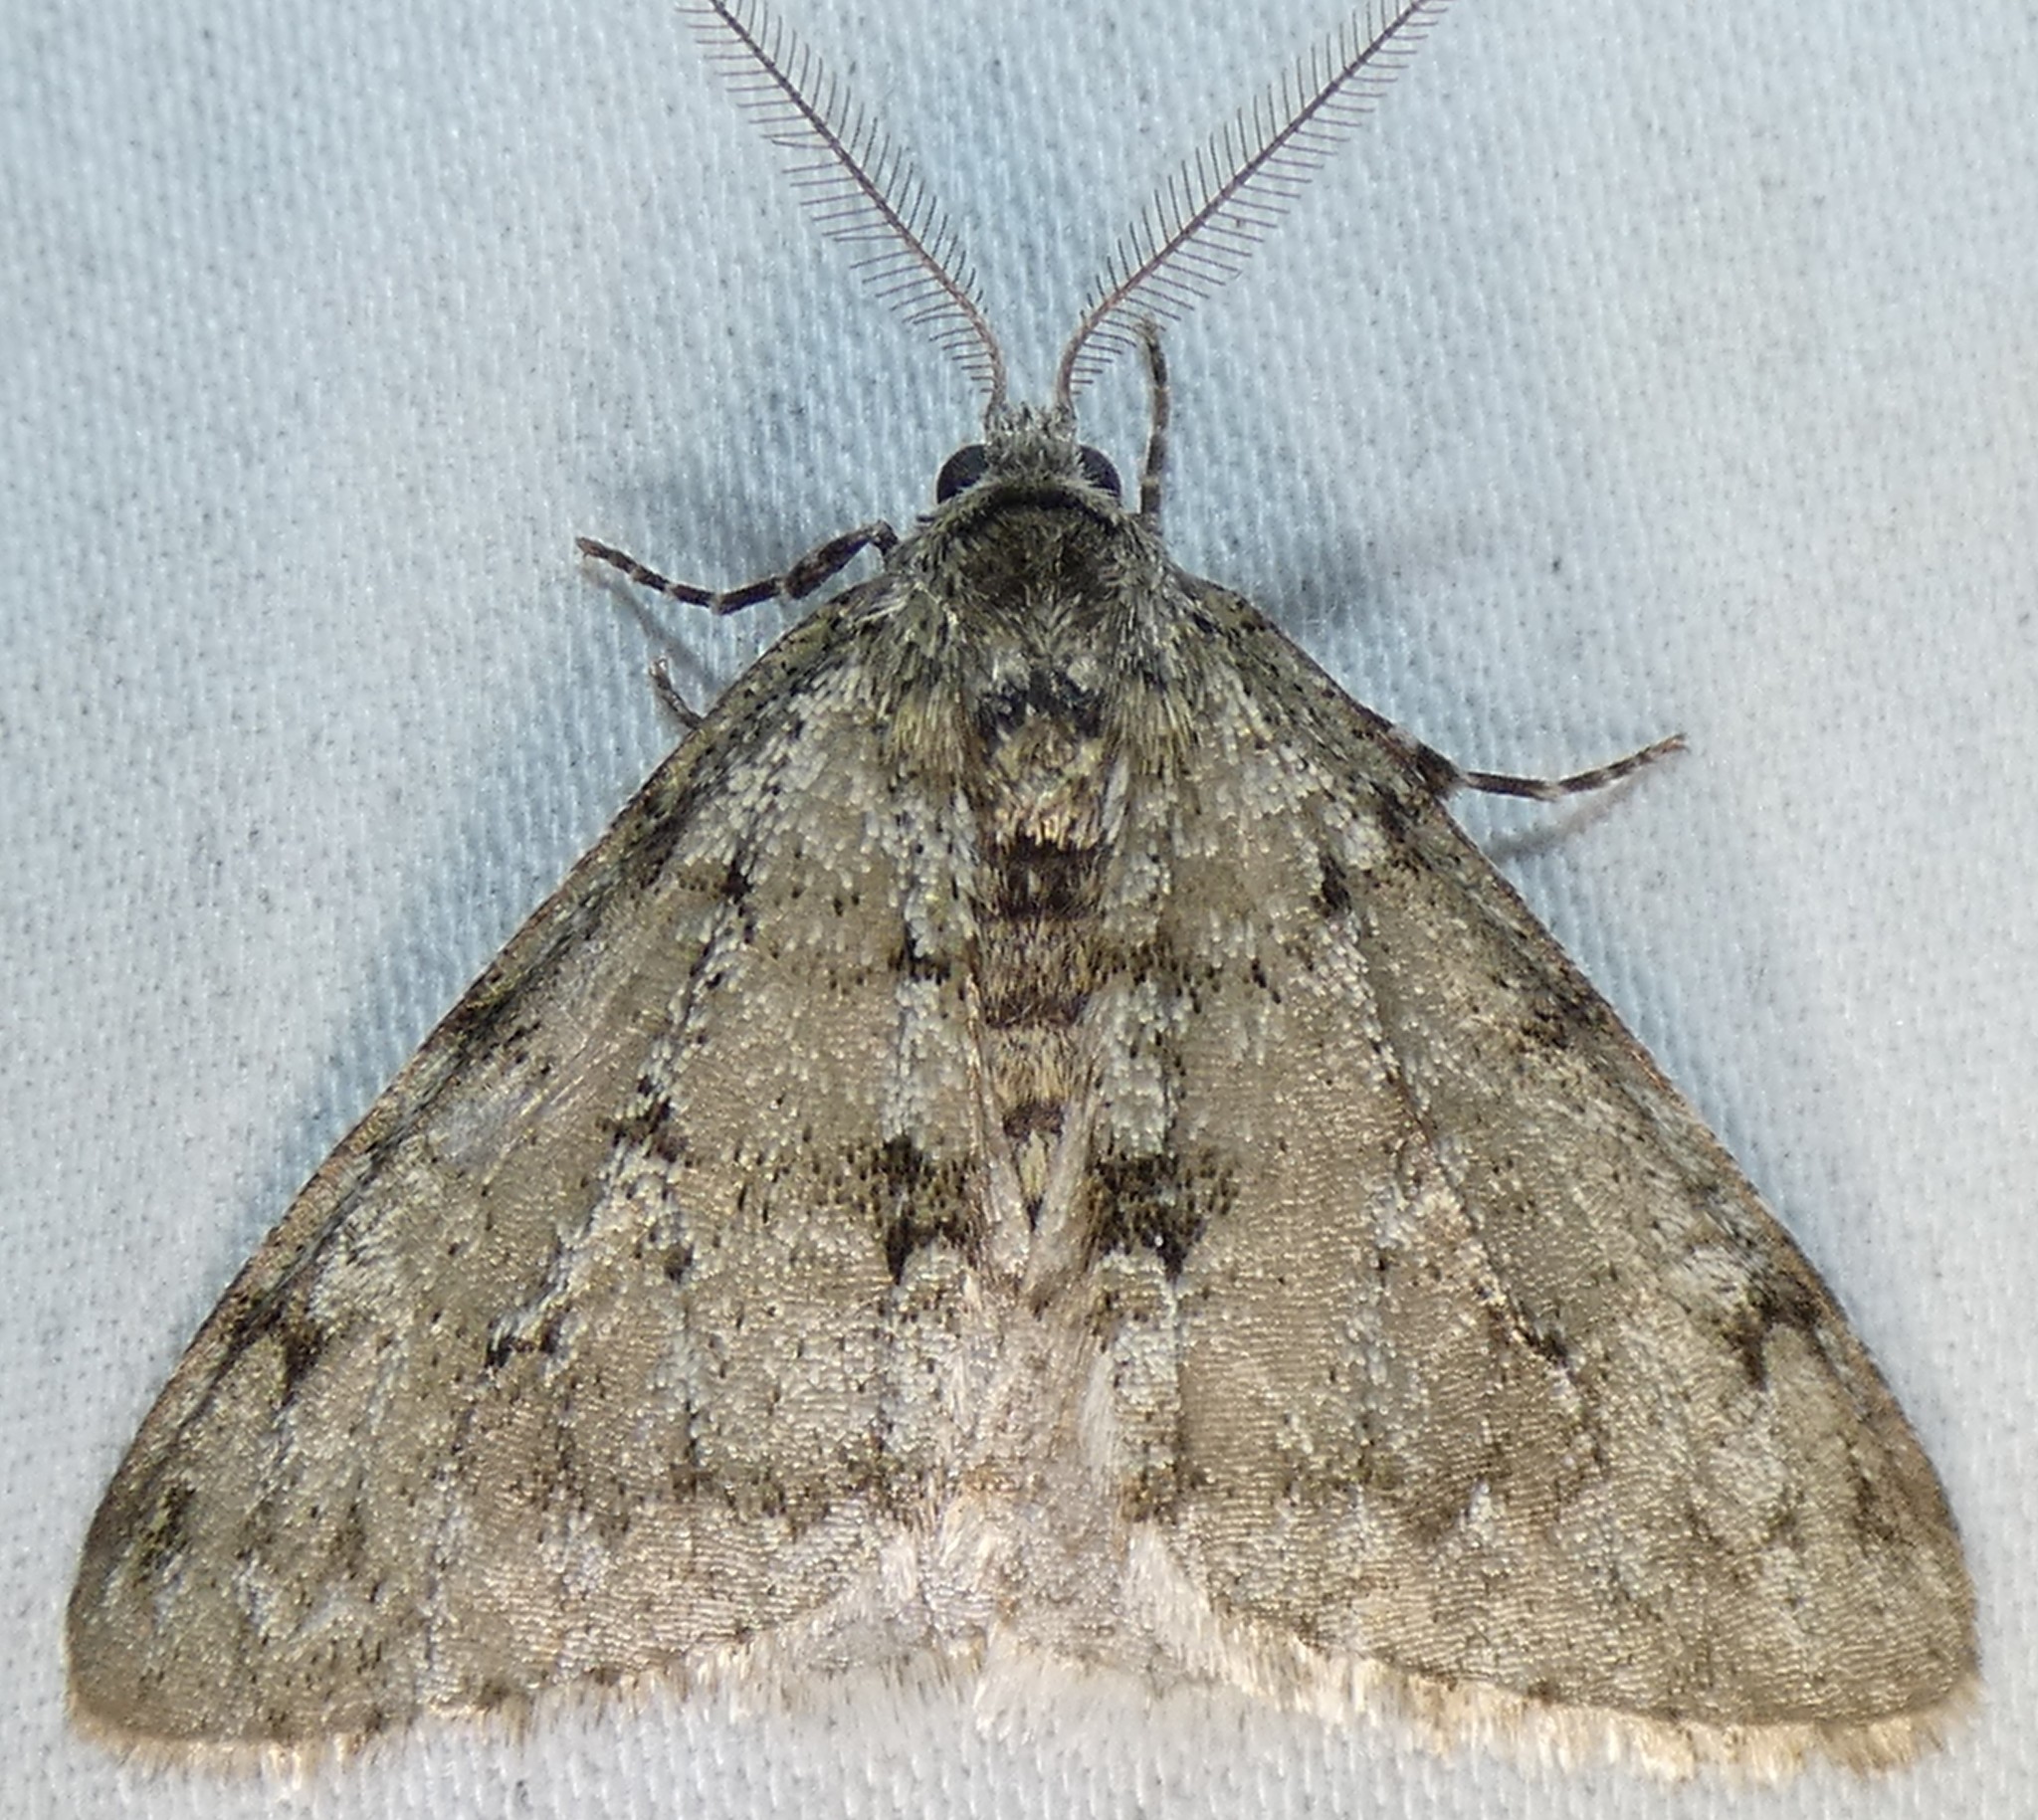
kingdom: Animalia
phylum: Arthropoda
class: Insecta
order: Lepidoptera
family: Geometridae
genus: Phigalia
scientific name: Phigalia strigataria
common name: Small phigalia
